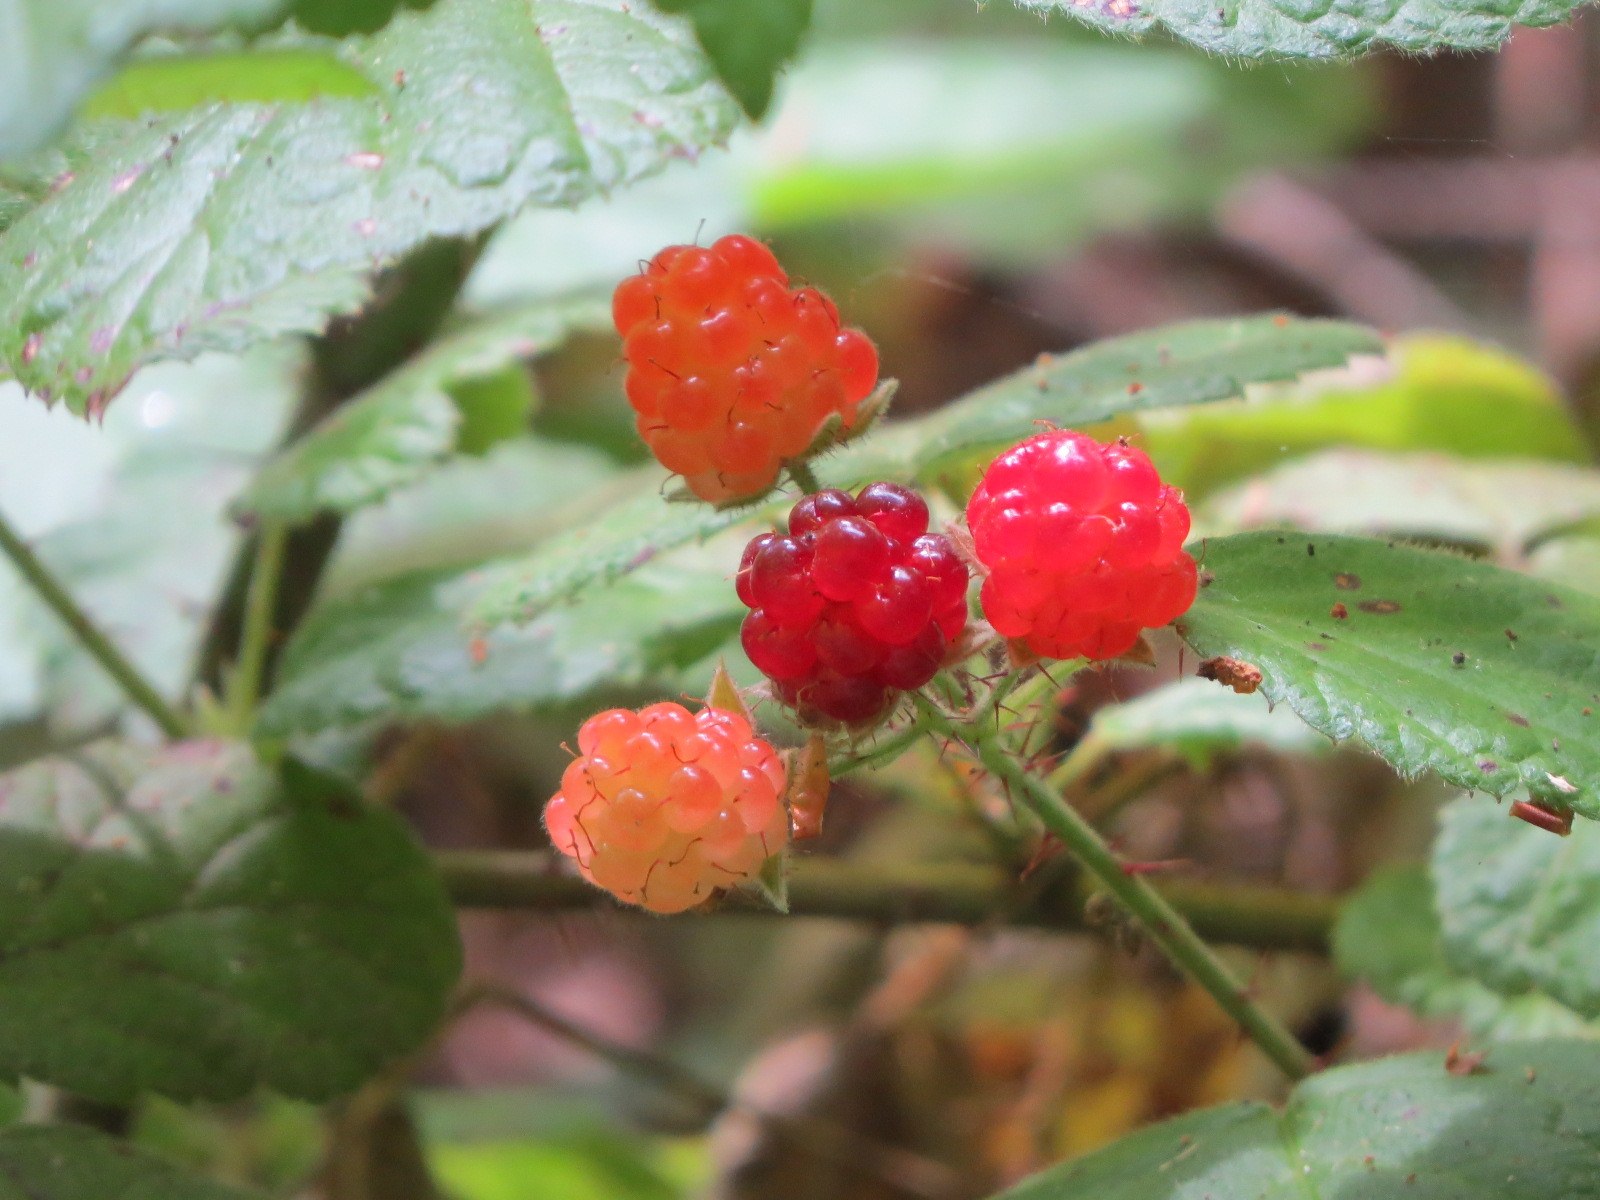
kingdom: Plantae
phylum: Tracheophyta
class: Magnoliopsida
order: Rosales
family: Rosaceae
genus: Rubus
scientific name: Rubus ursinus
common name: Pacific blackberry
